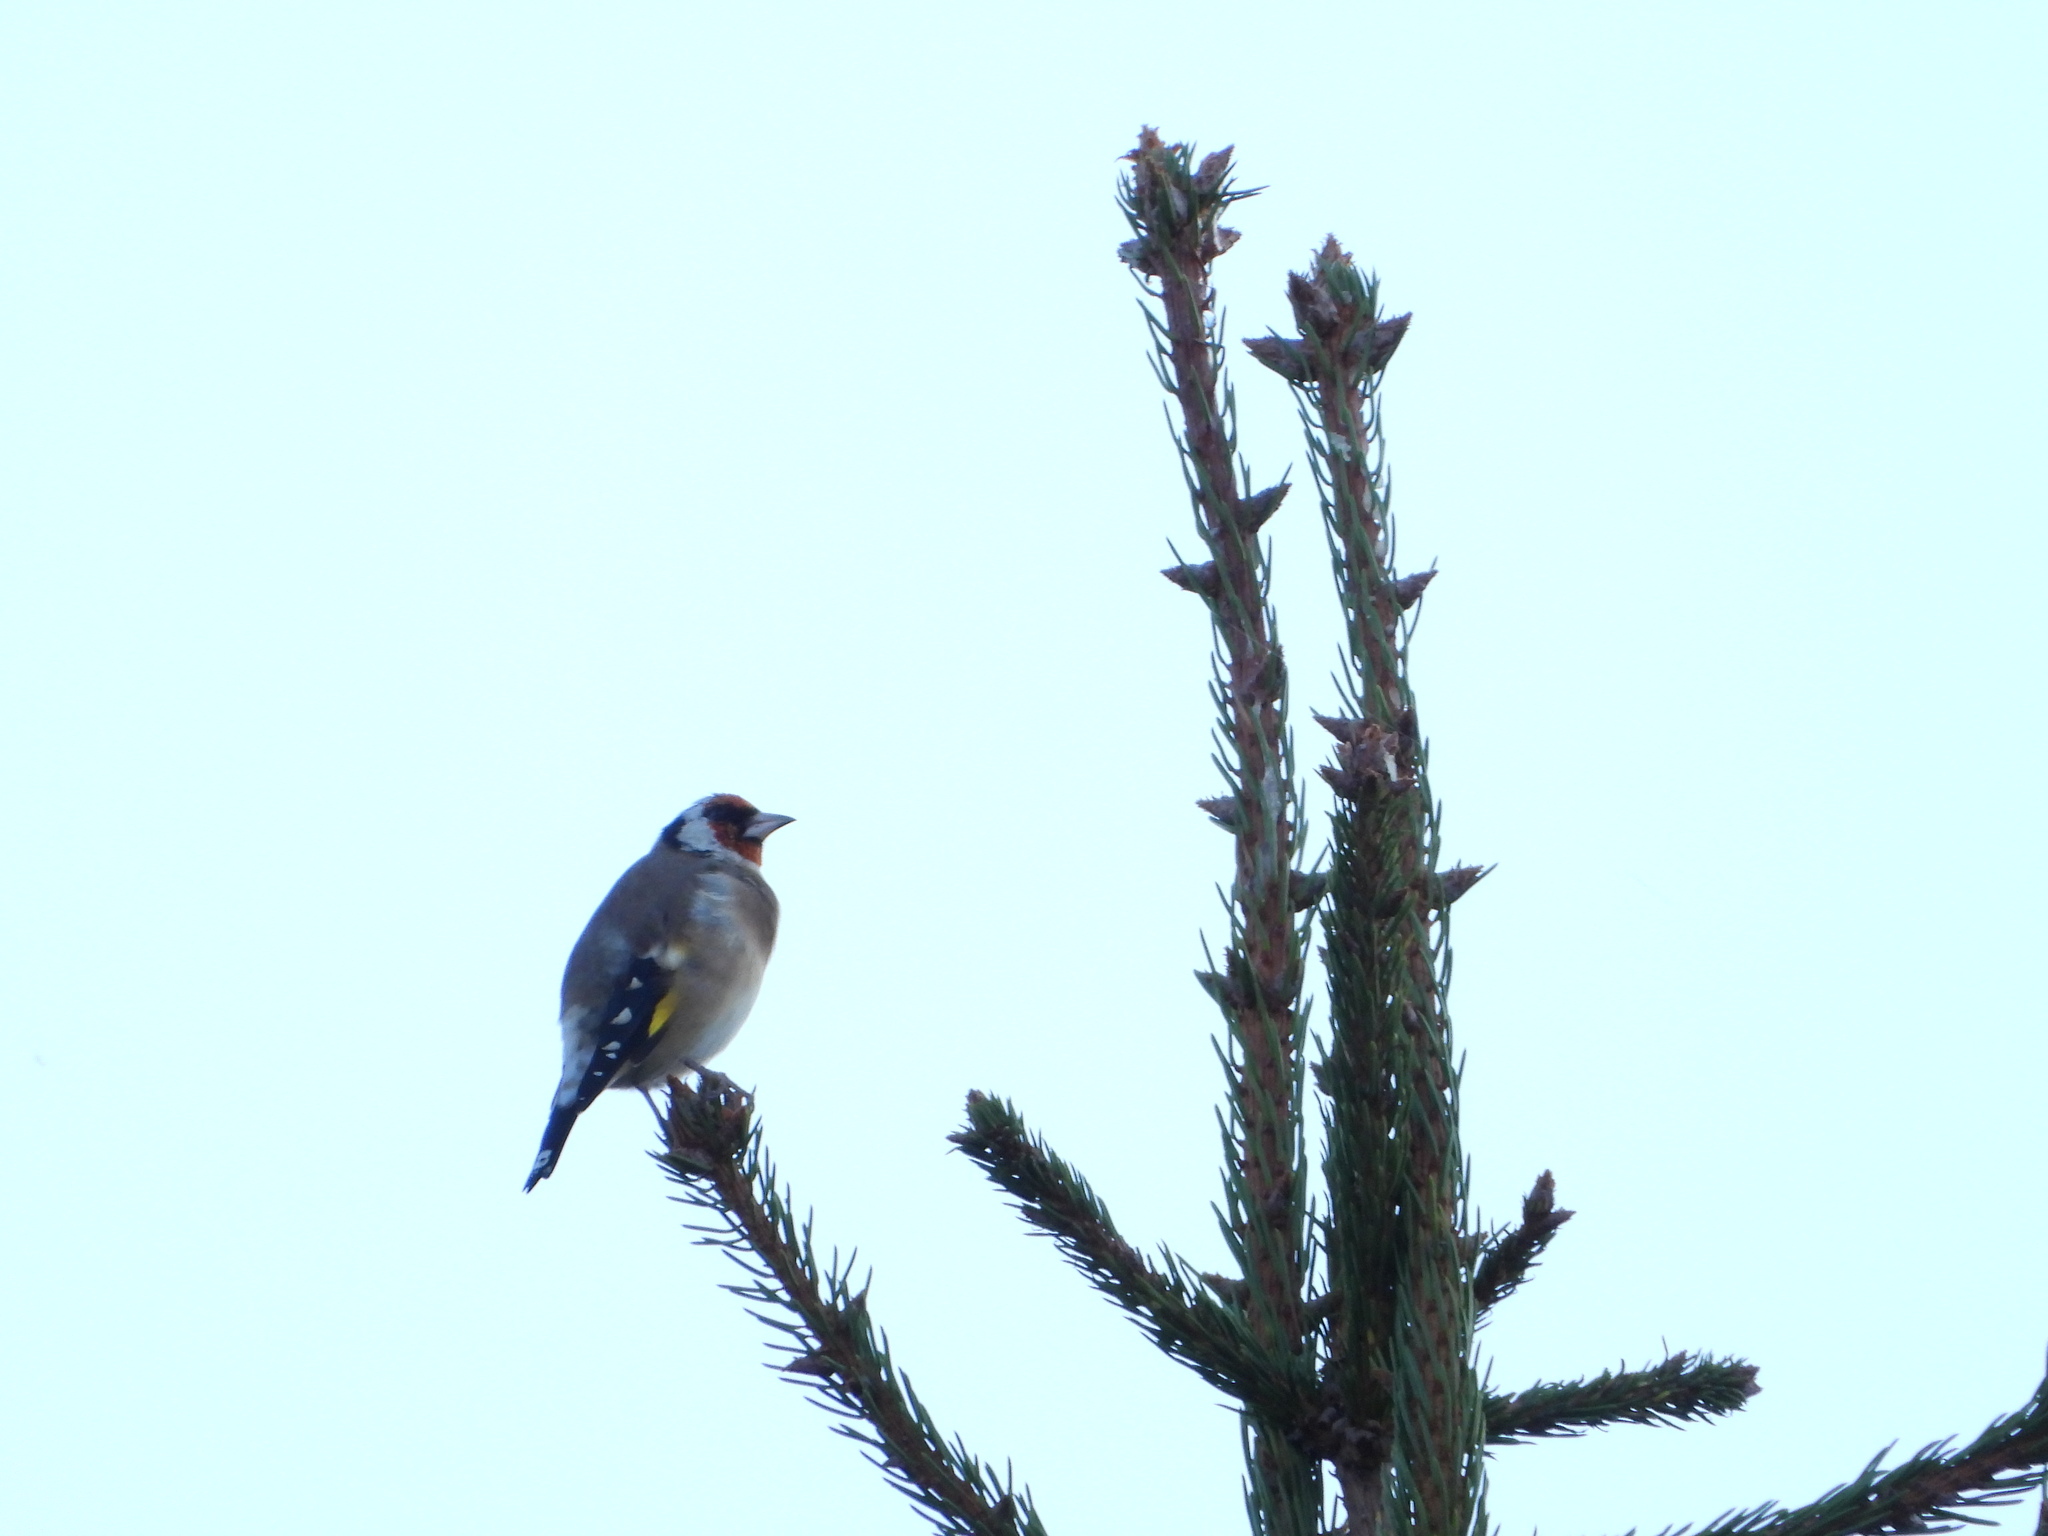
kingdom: Animalia
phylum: Chordata
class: Aves
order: Passeriformes
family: Fringillidae
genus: Carduelis
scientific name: Carduelis carduelis
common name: European goldfinch
